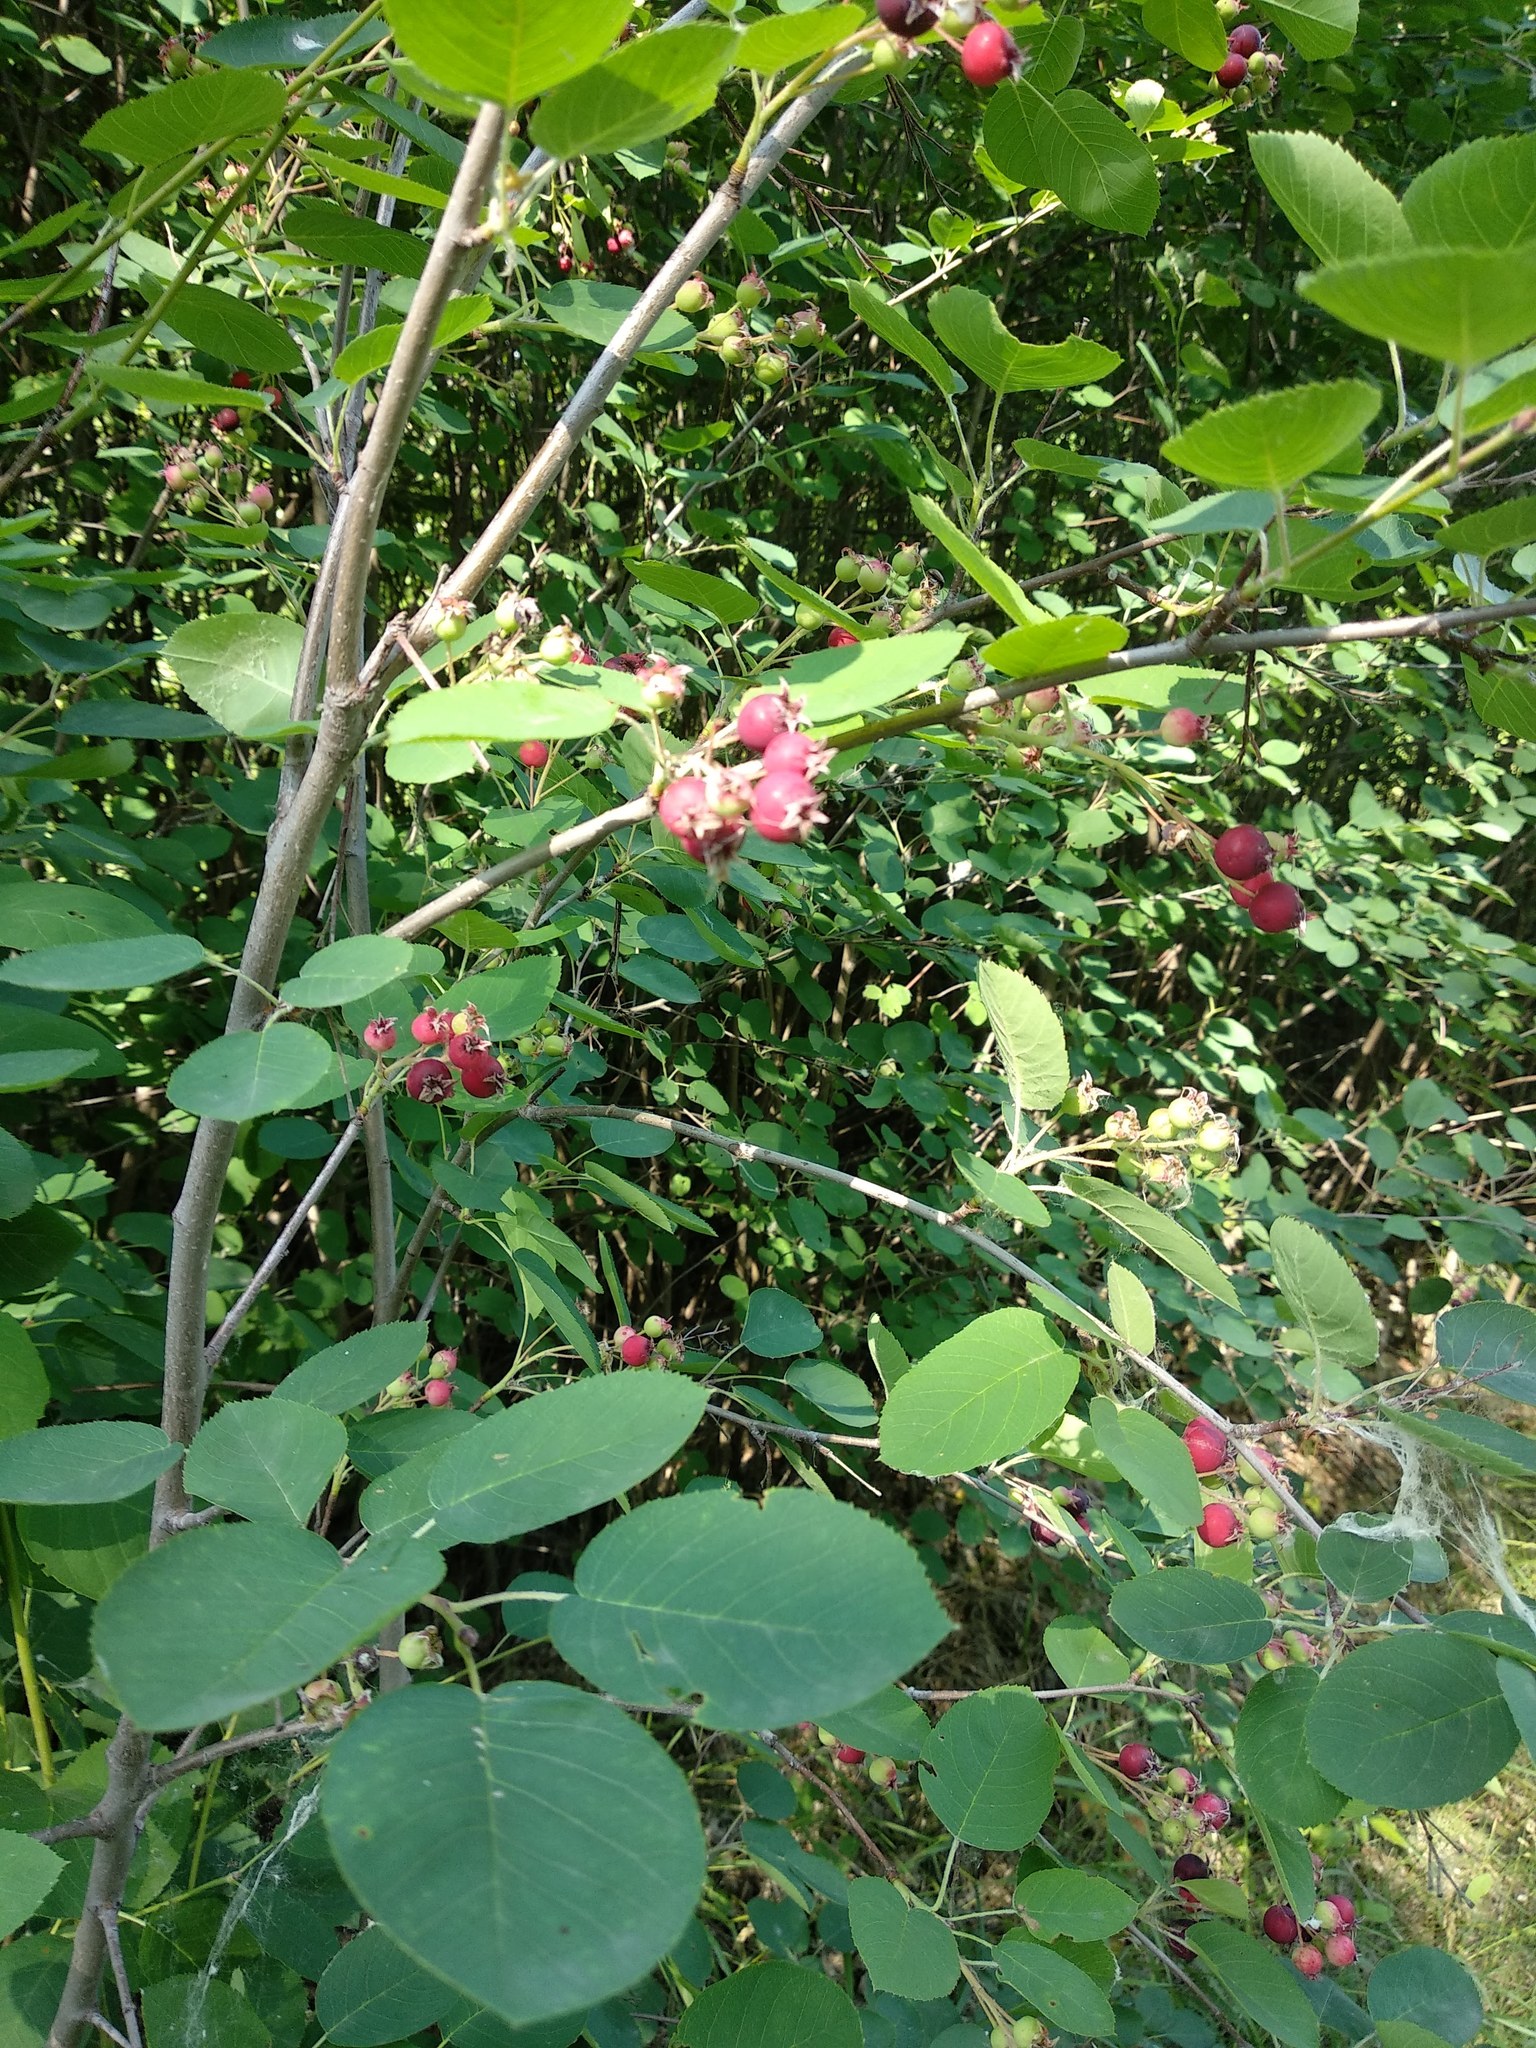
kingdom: Plantae
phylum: Tracheophyta
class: Magnoliopsida
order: Rosales
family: Rosaceae
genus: Amelanchier
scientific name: Amelanchier alnifolia
